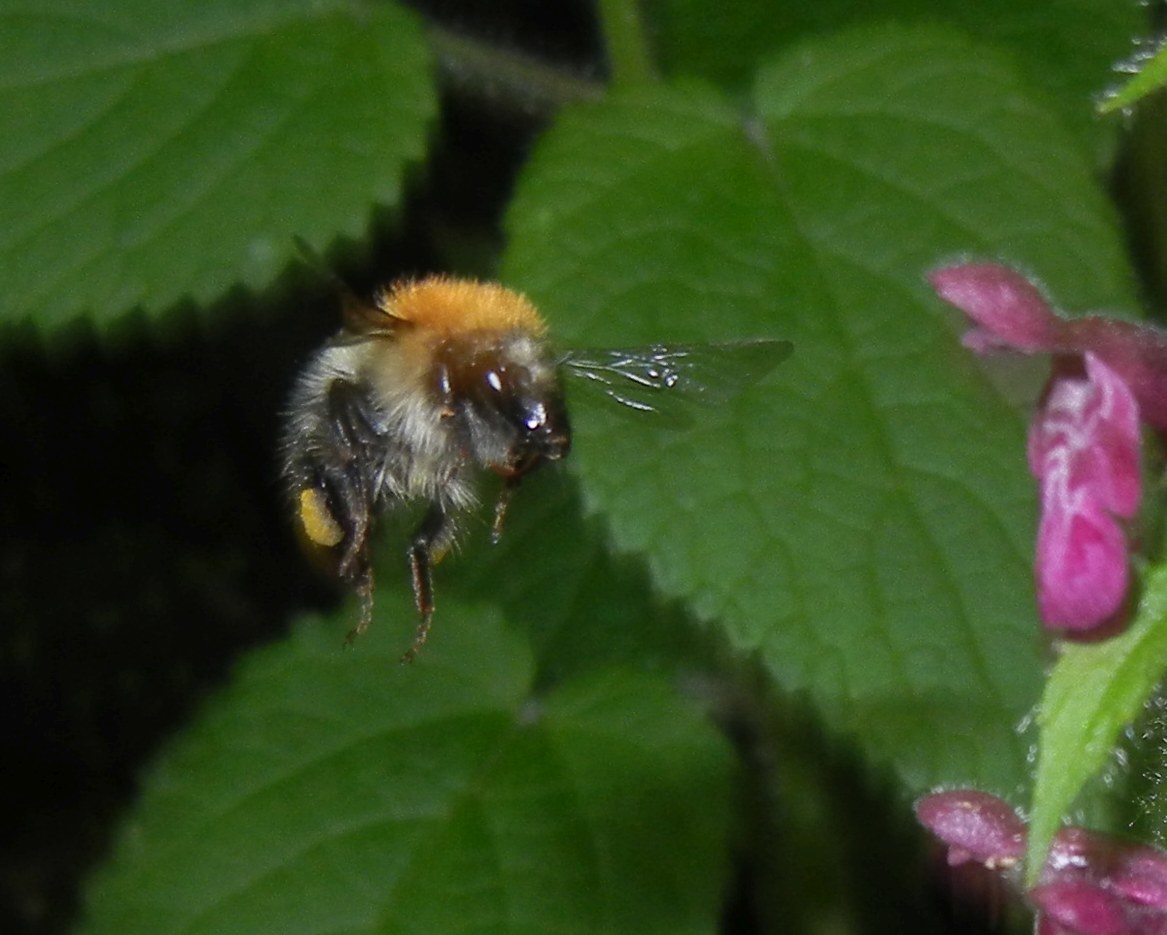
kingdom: Animalia
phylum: Arthropoda
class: Insecta
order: Hymenoptera
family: Apidae
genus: Bombus
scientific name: Bombus pascuorum
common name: Common carder bee
